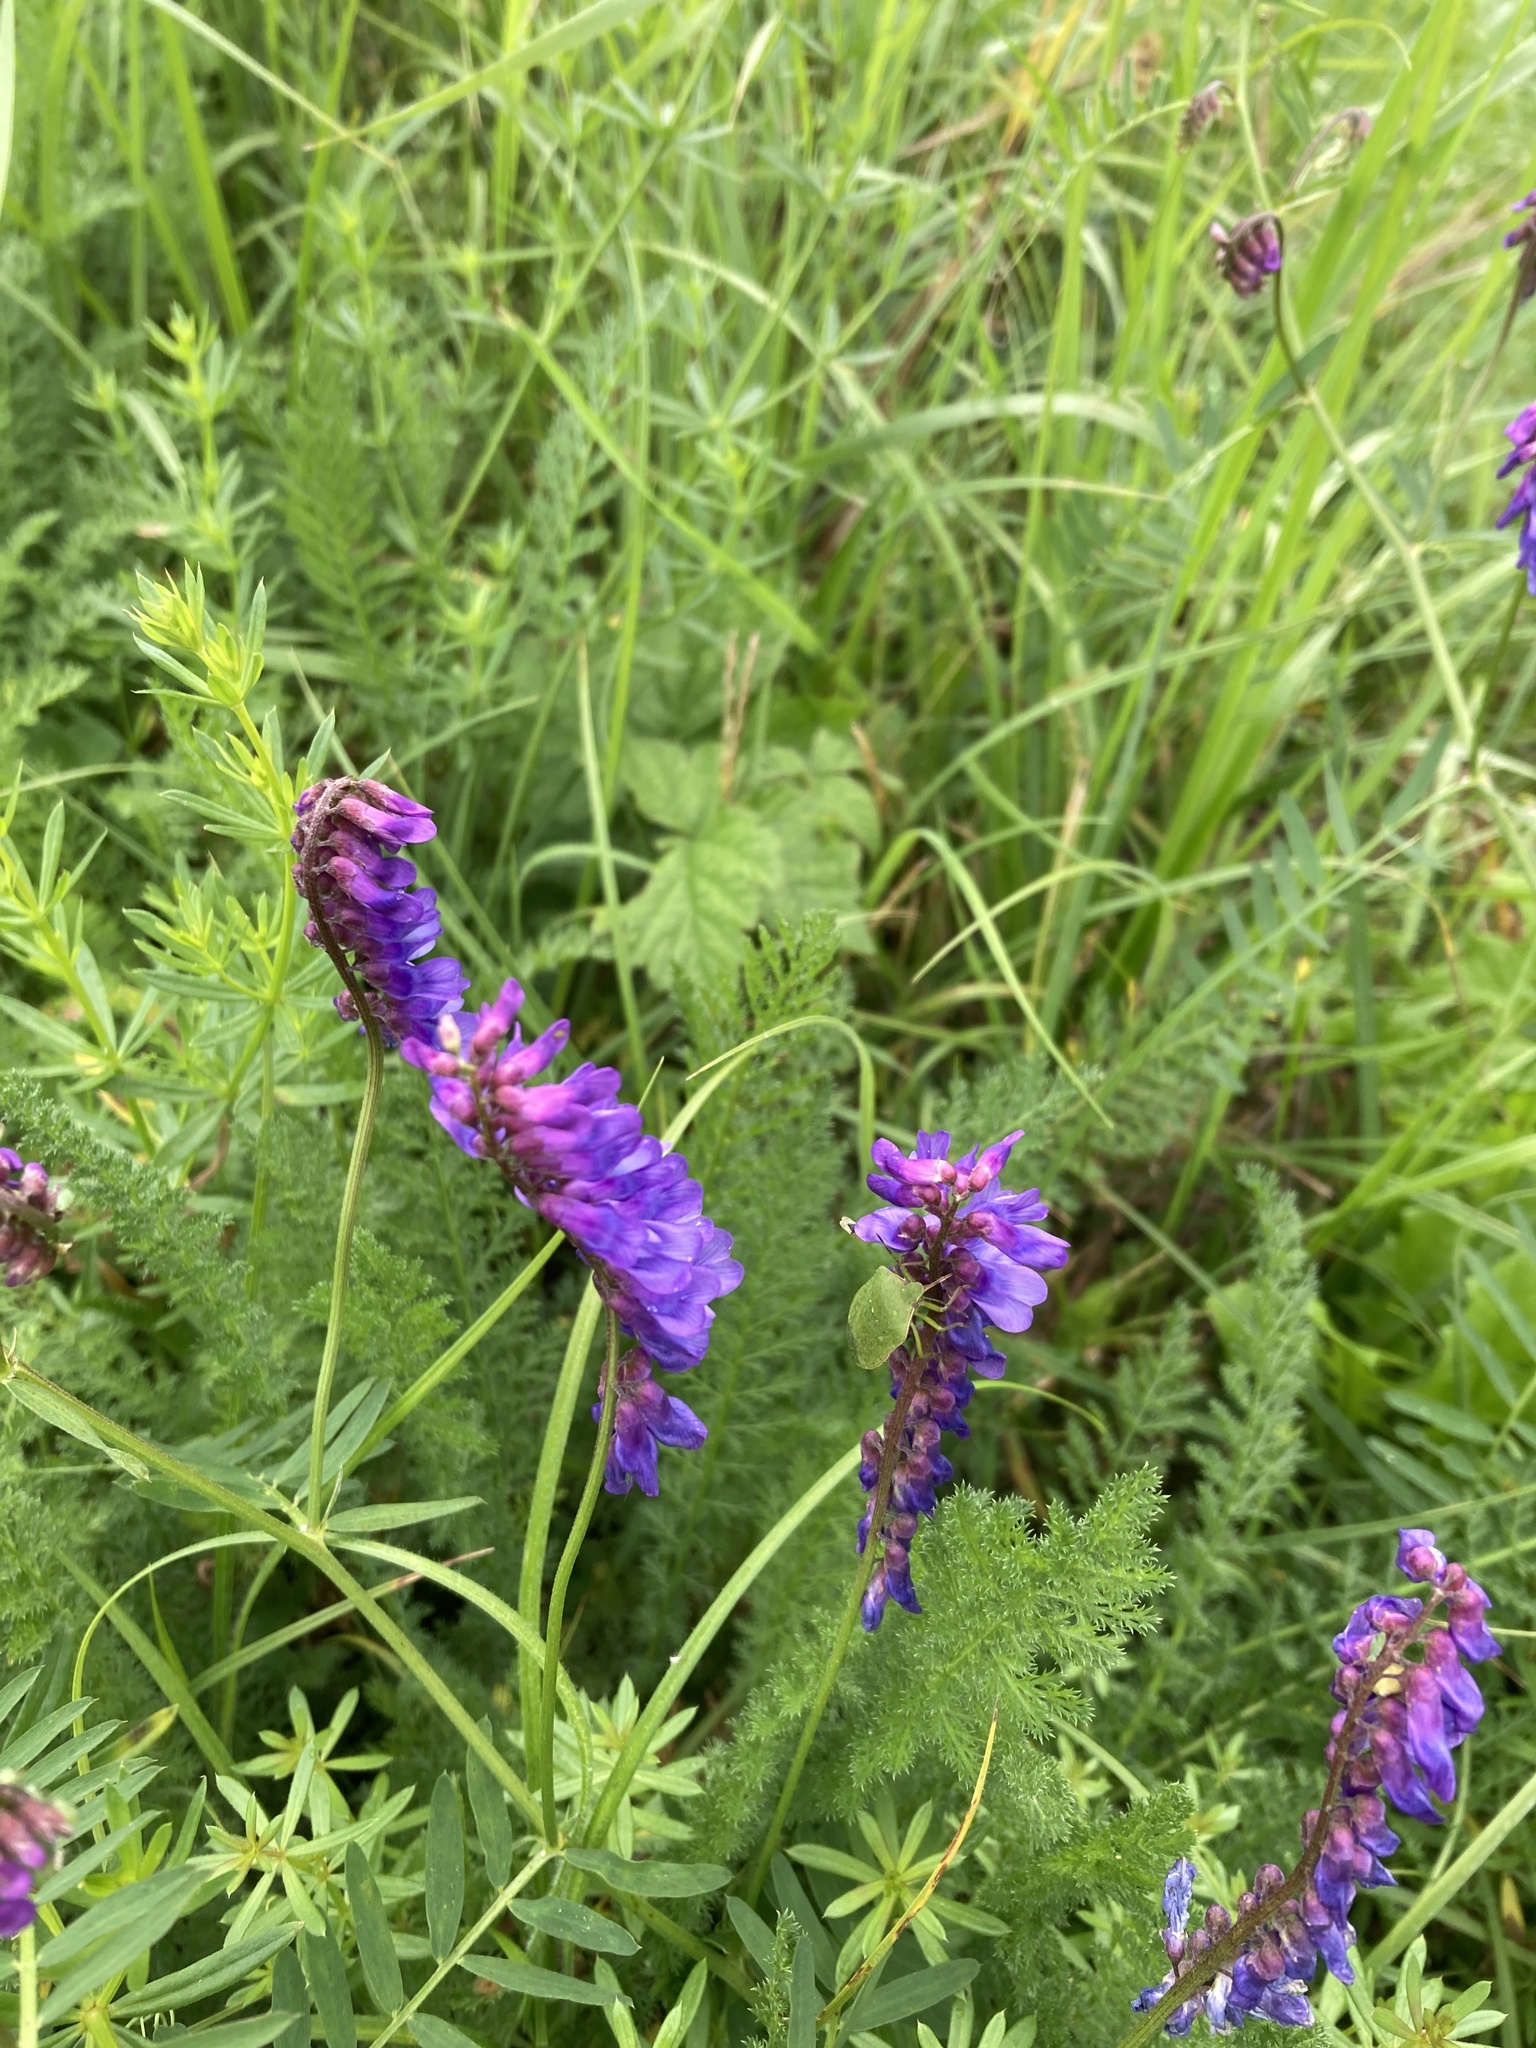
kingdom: Plantae
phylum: Tracheophyta
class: Magnoliopsida
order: Fabales
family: Fabaceae
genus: Vicia
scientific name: Vicia cracca
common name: Bird vetch
